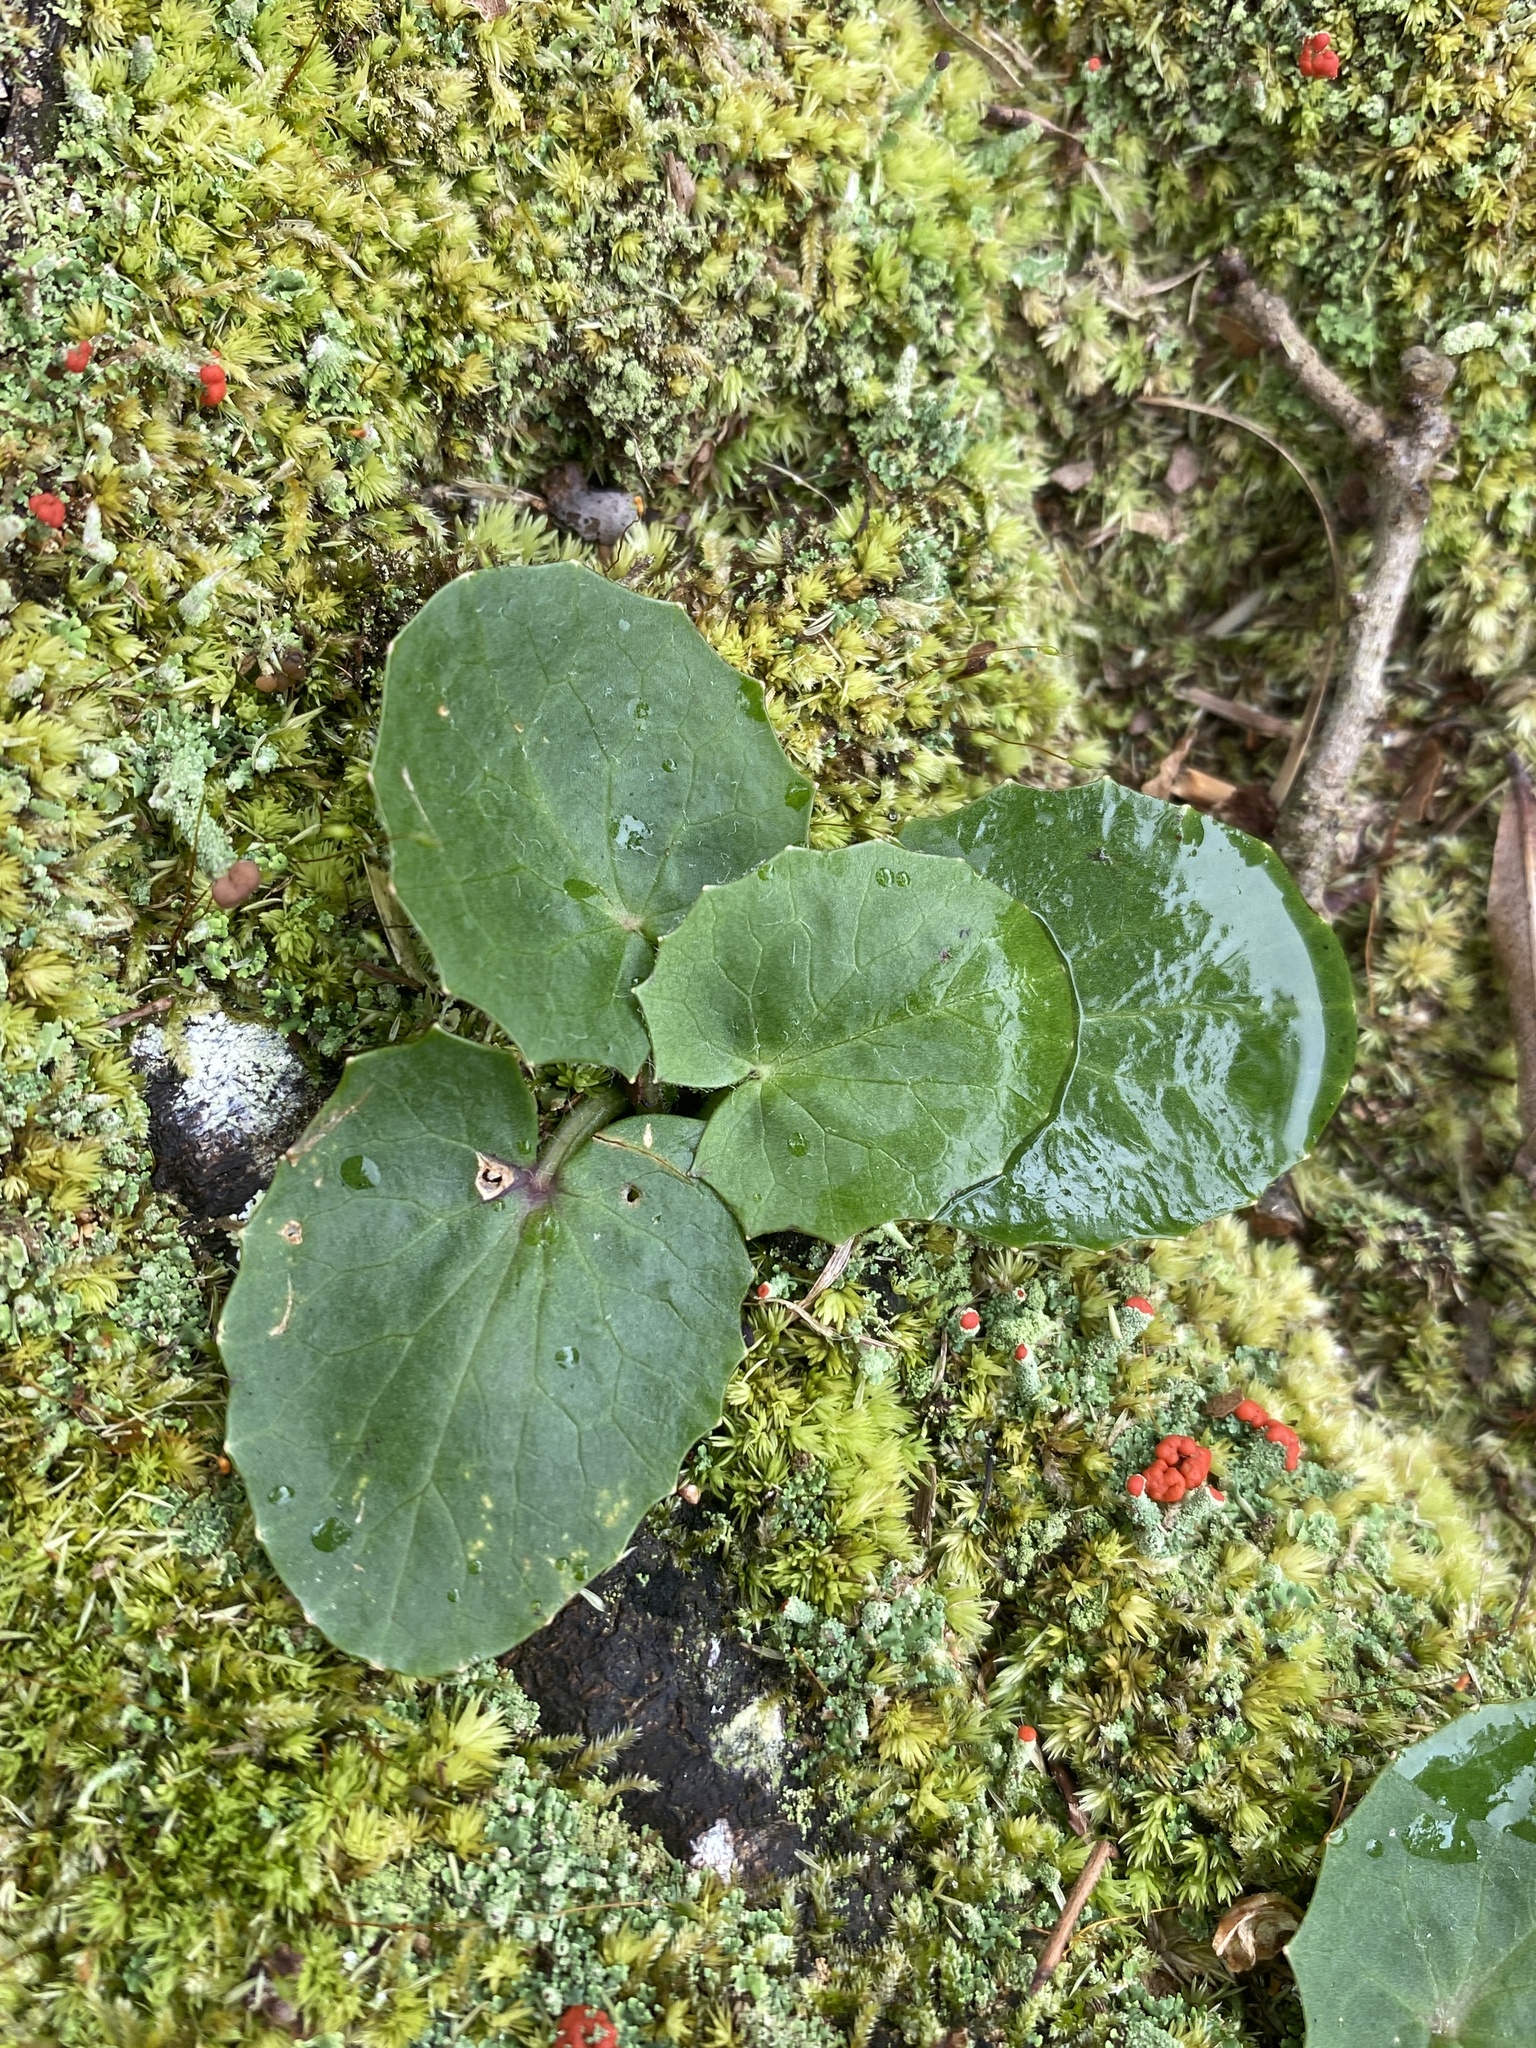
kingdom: Plantae
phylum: Tracheophyta
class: Magnoliopsida
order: Apiales
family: Apiaceae
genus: Centella
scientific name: Centella erecta
